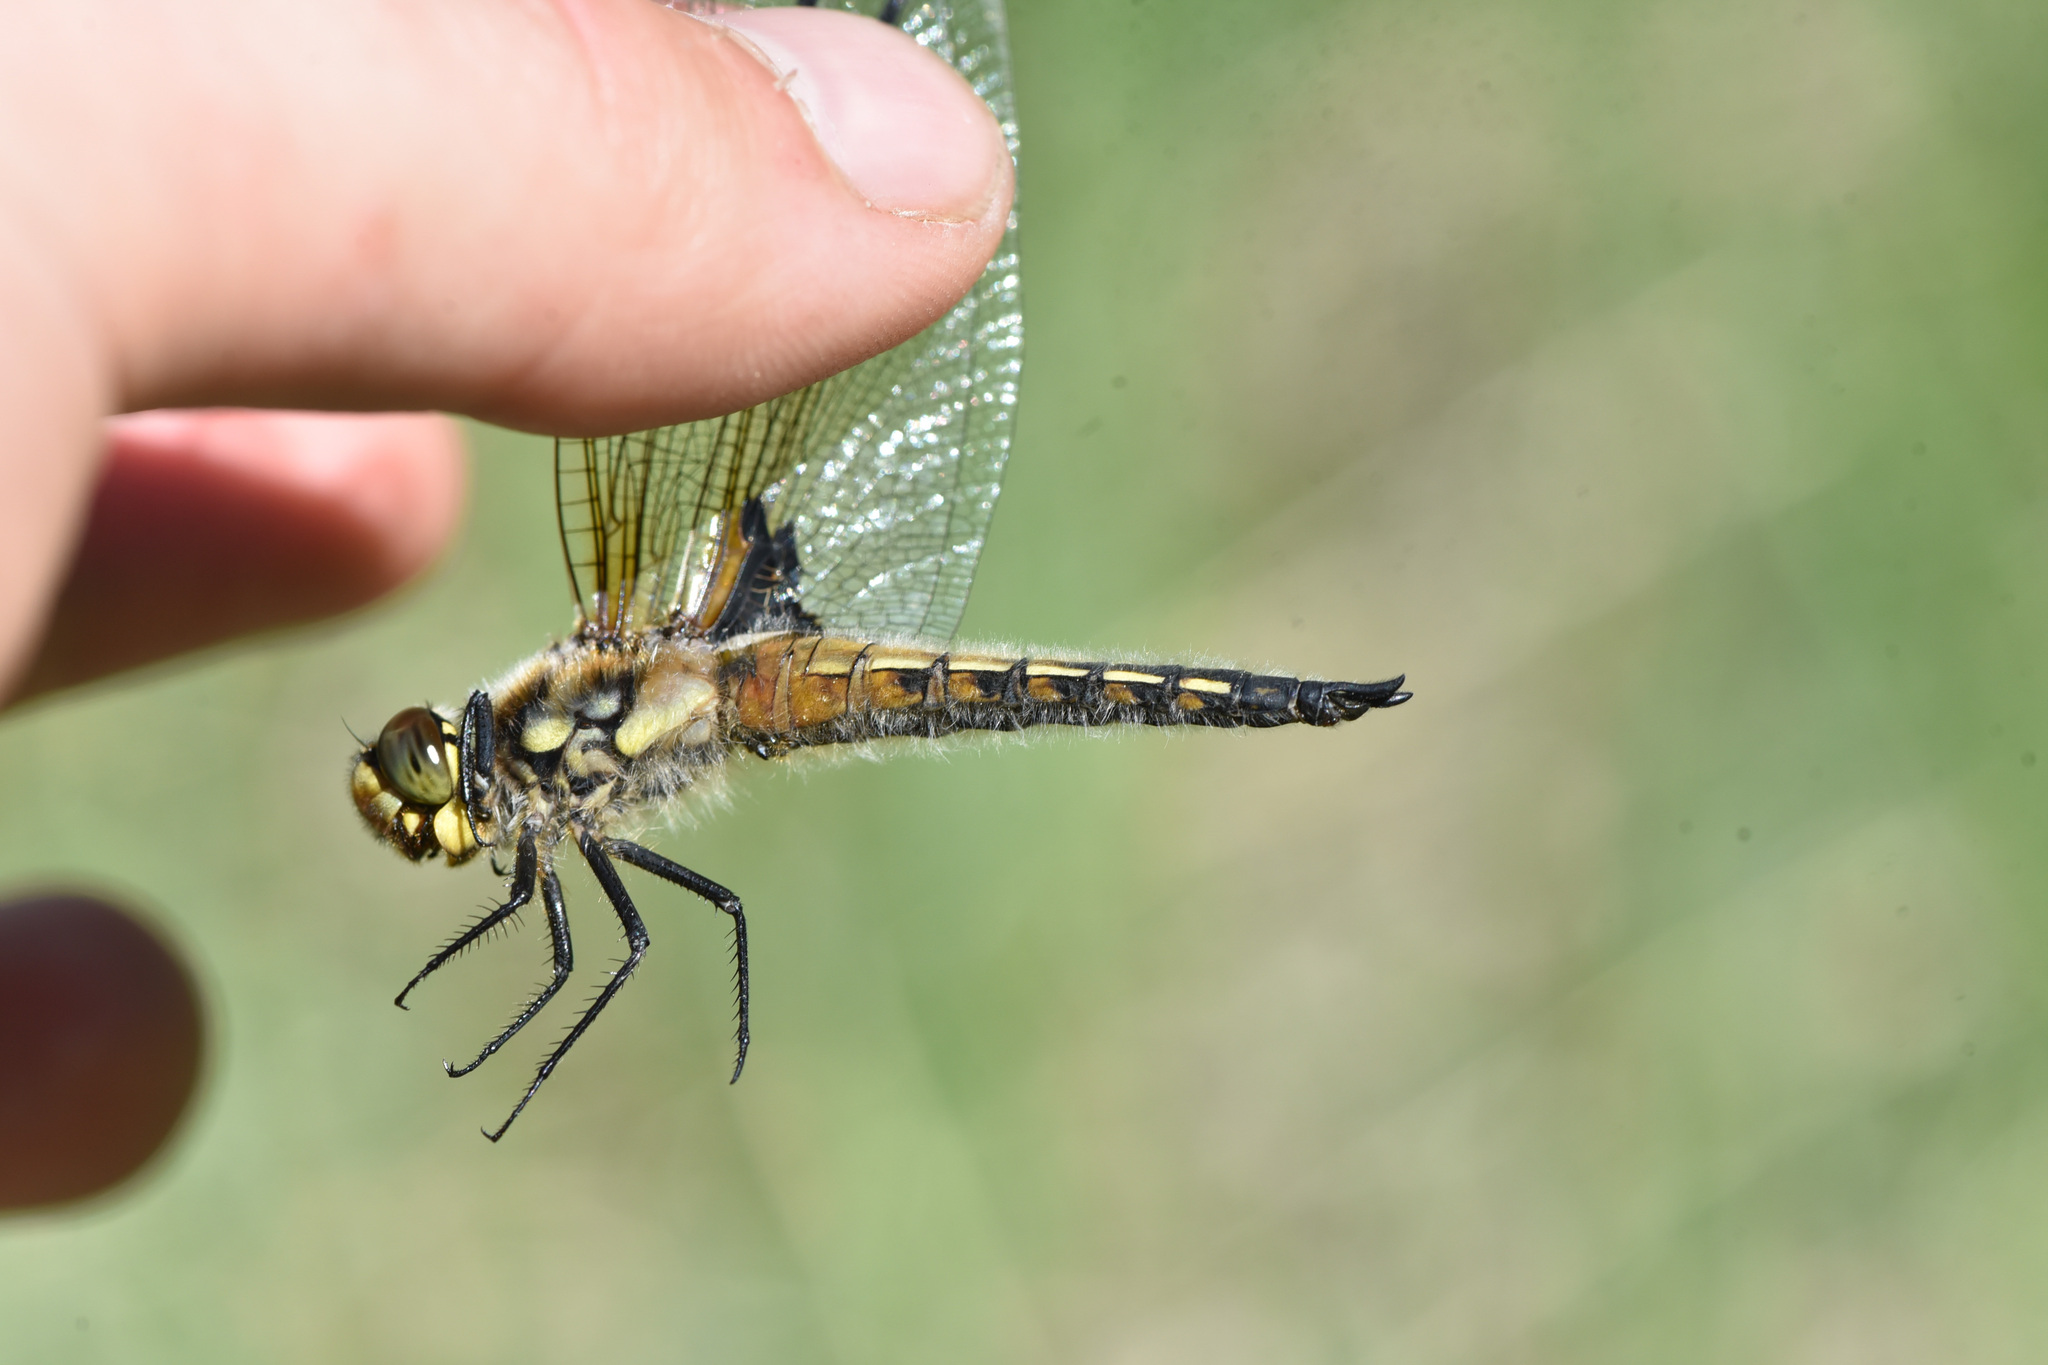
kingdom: Animalia
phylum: Arthropoda
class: Insecta
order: Odonata
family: Libellulidae
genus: Libellula
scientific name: Libellula quadrimaculata
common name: Four-spotted chaser
